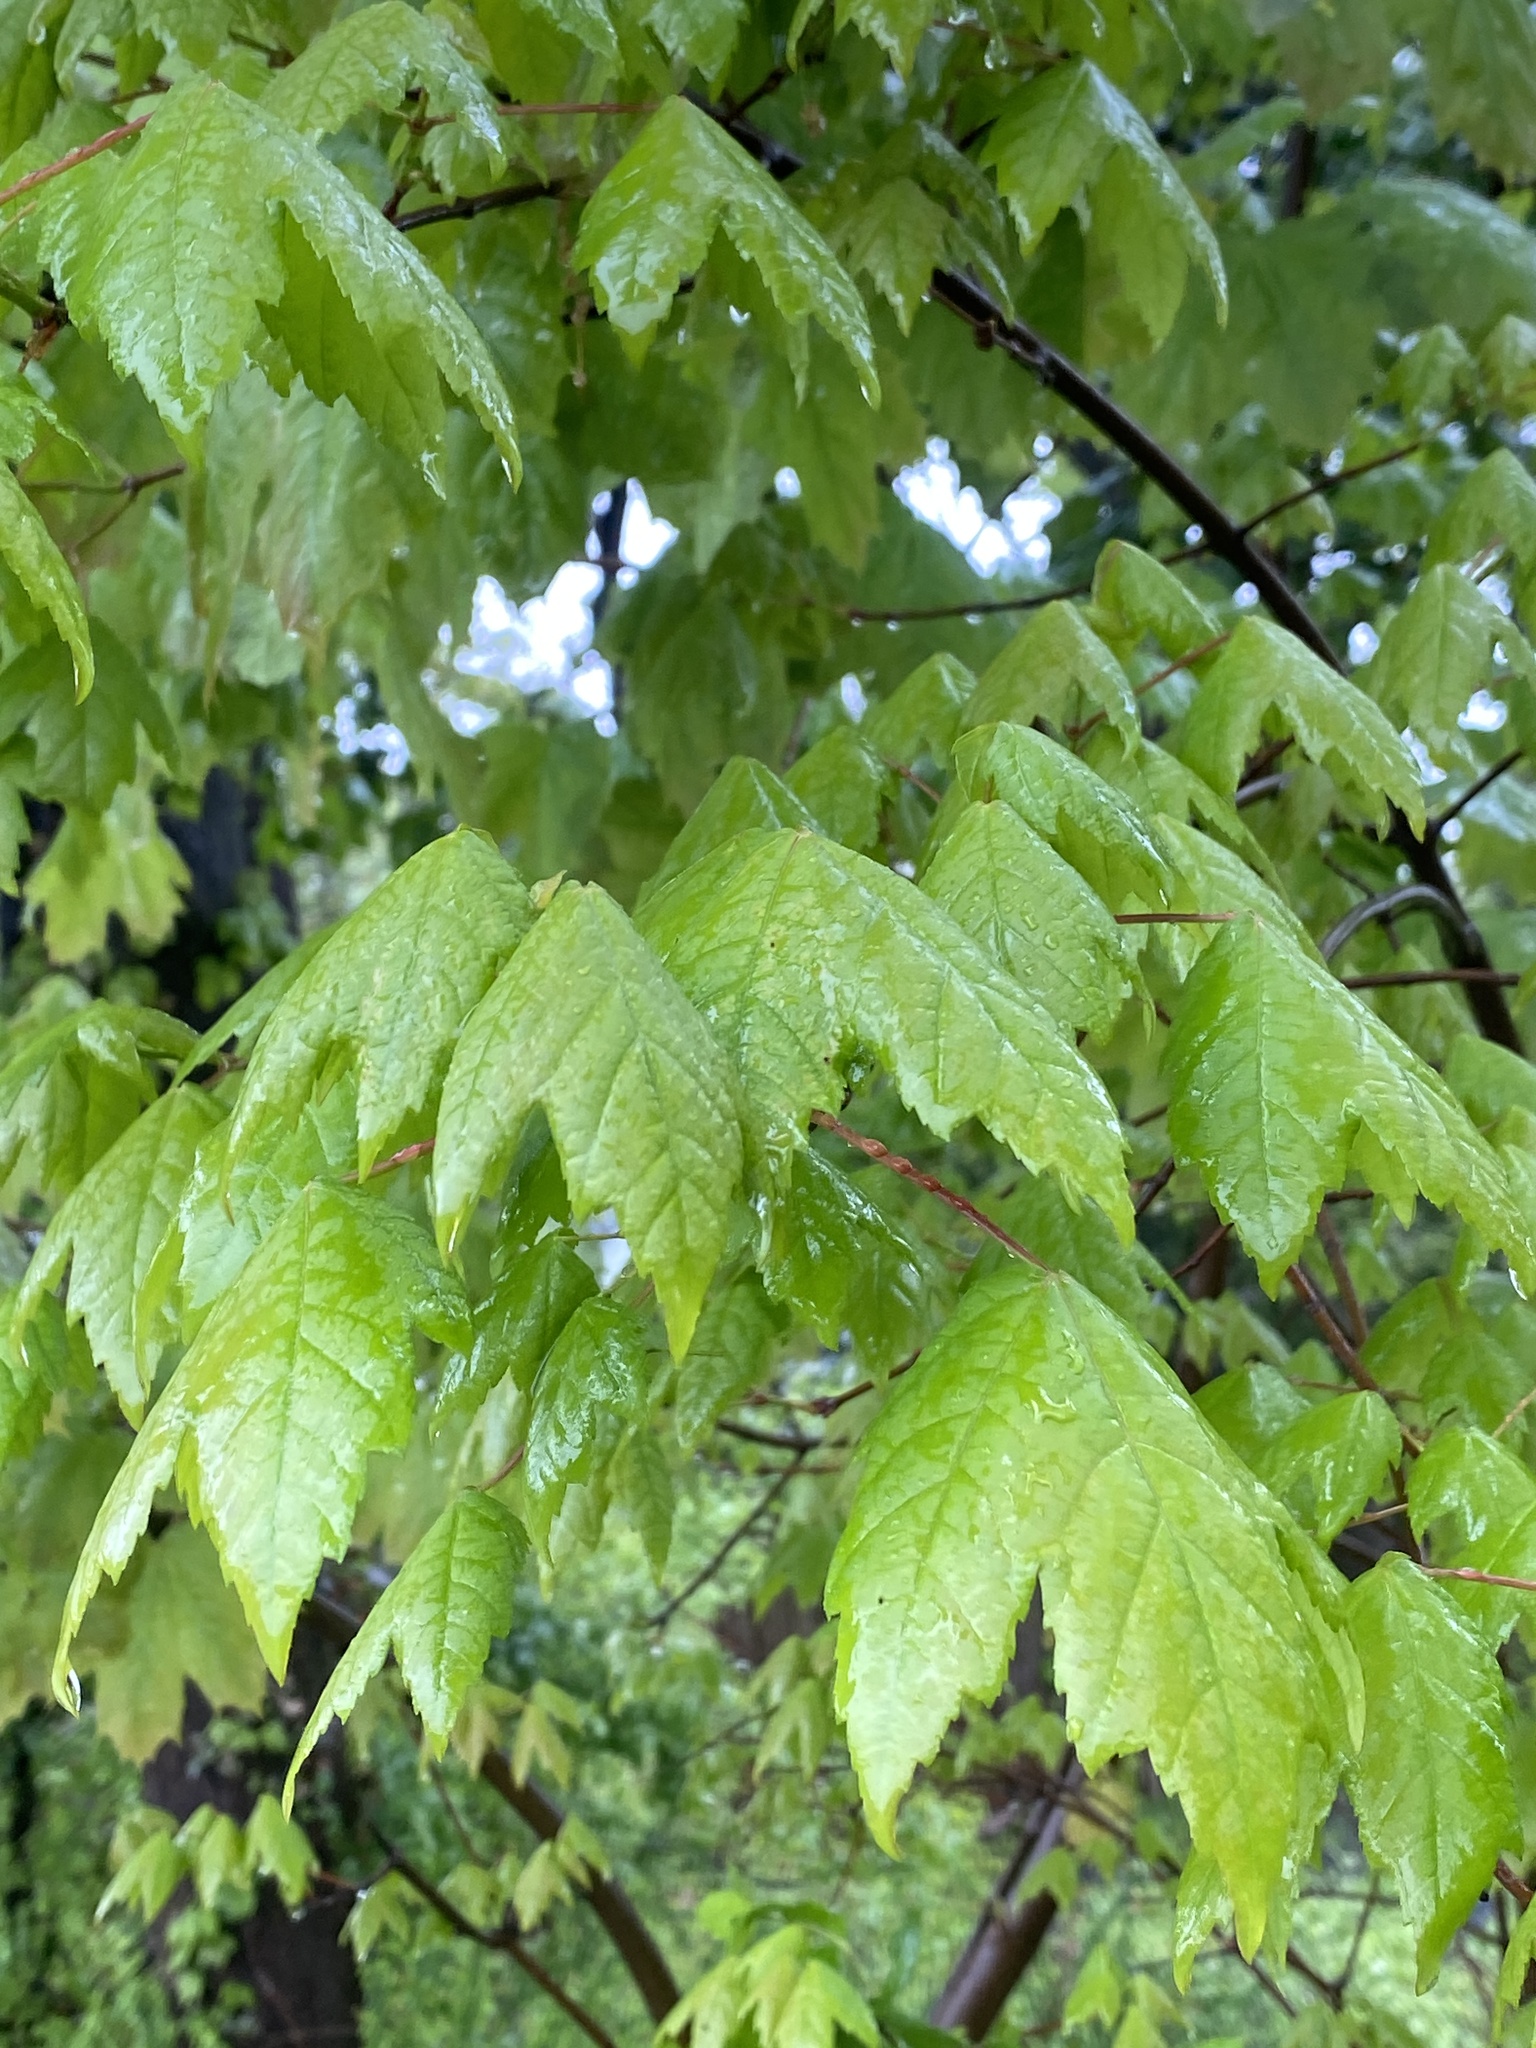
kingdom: Plantae
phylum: Tracheophyta
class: Magnoliopsida
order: Sapindales
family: Sapindaceae
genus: Acer
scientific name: Acer rubrum
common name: Red maple
